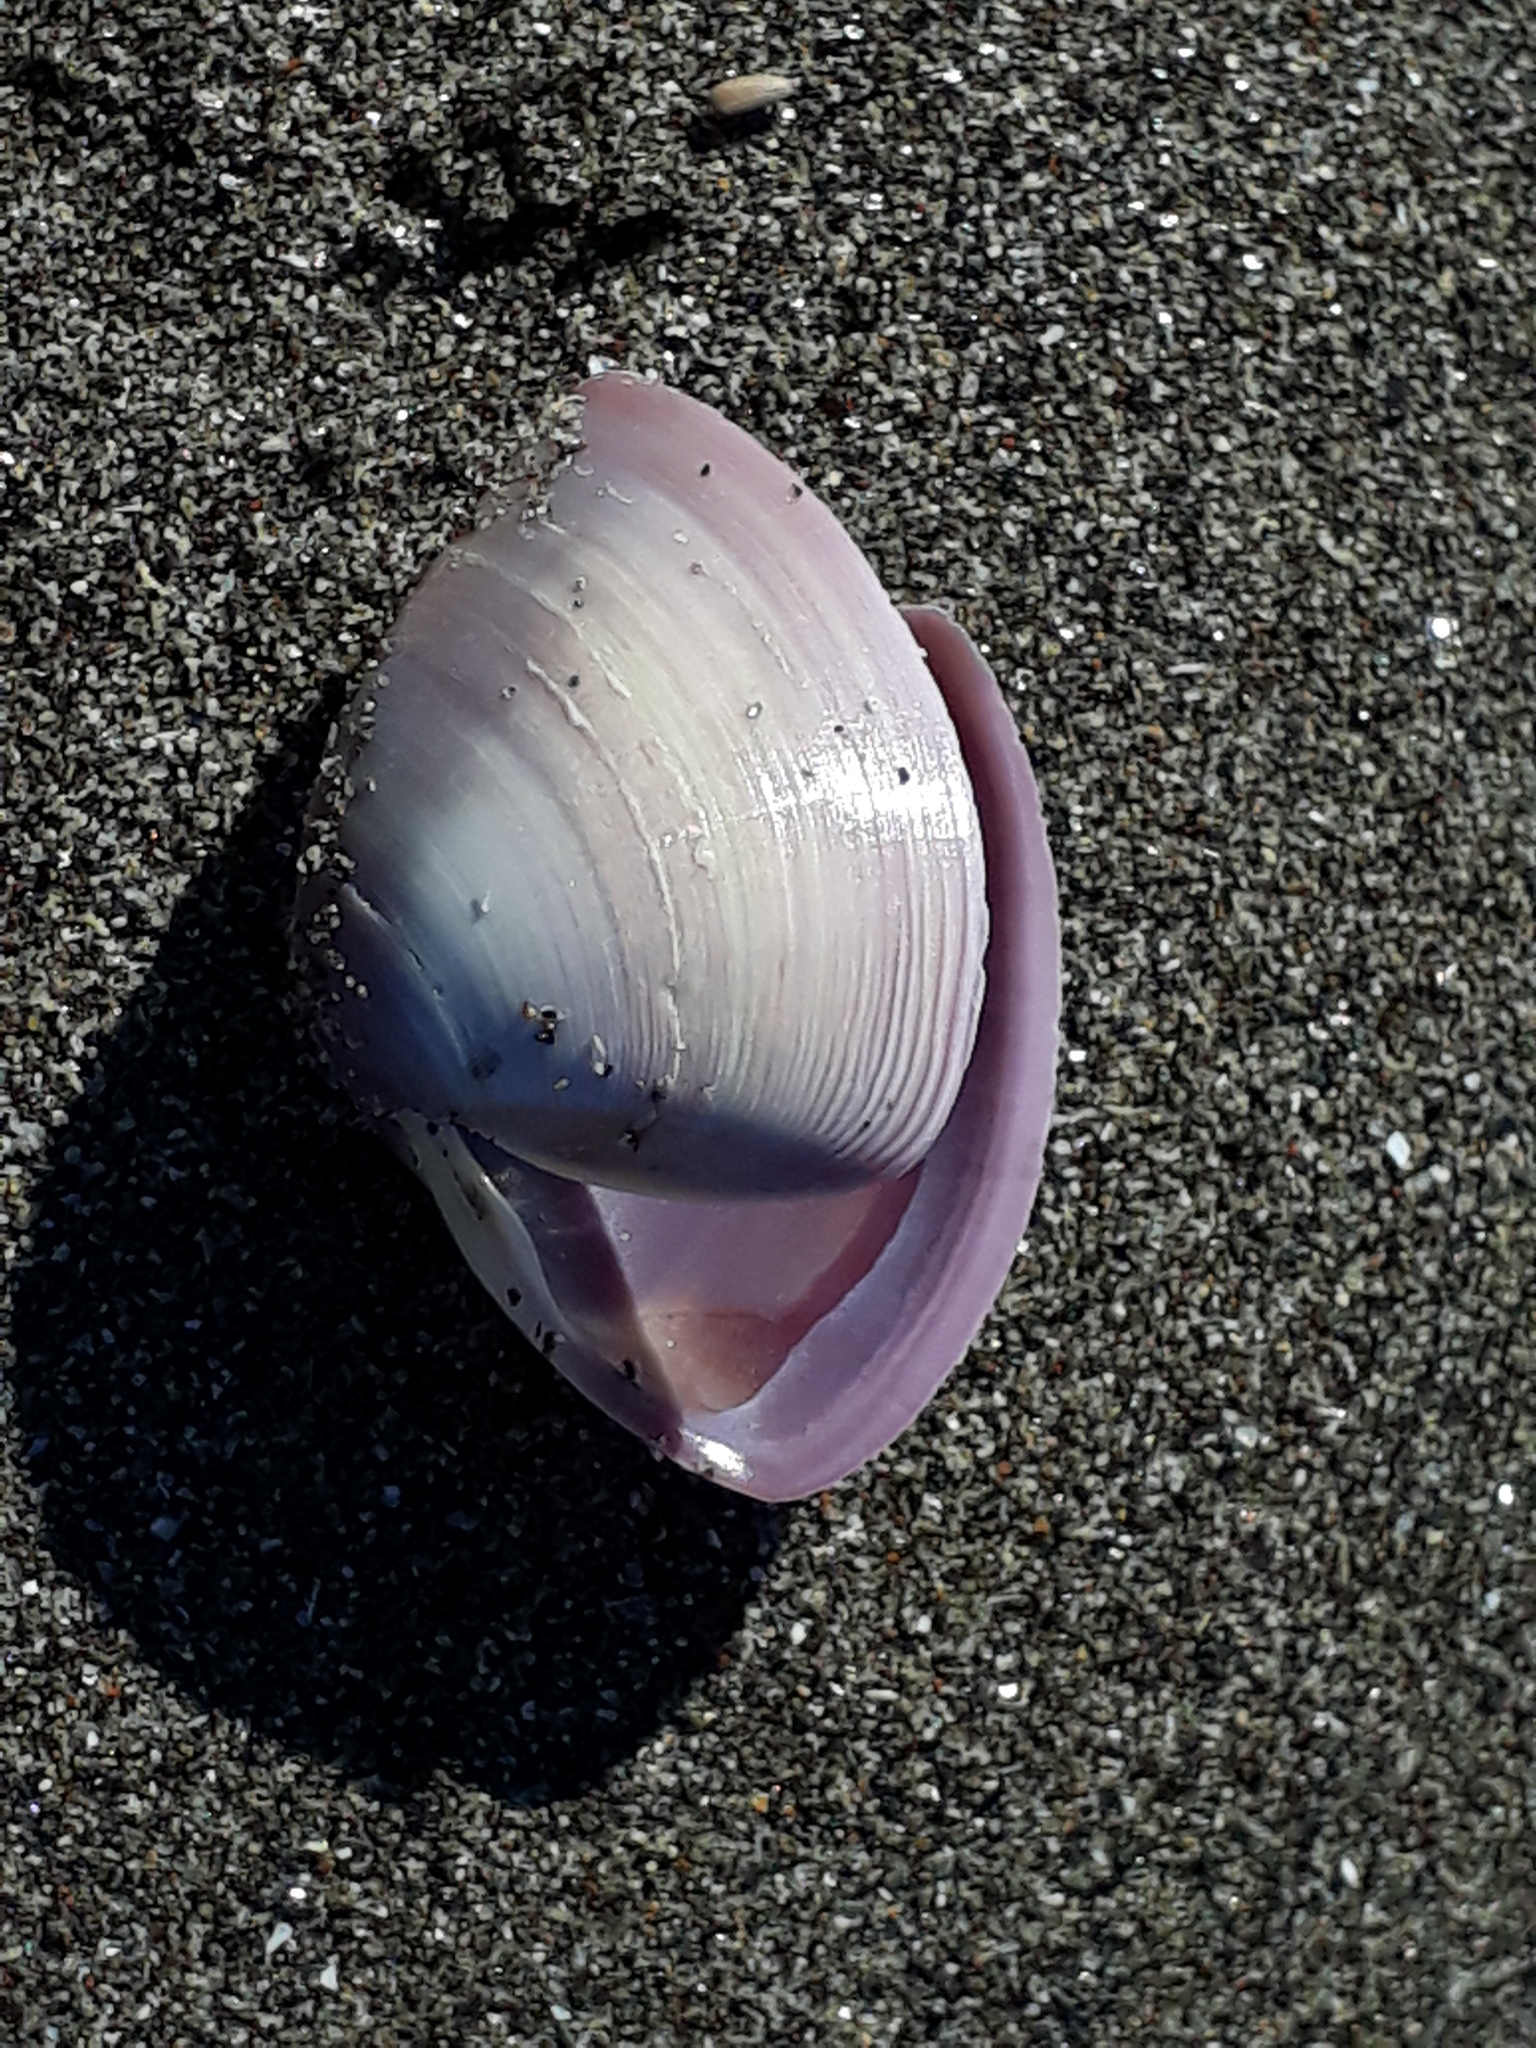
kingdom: Animalia
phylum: Mollusca
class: Bivalvia
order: Venerida
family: Mactridae
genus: Crassula
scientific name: Crassula aequilatera
